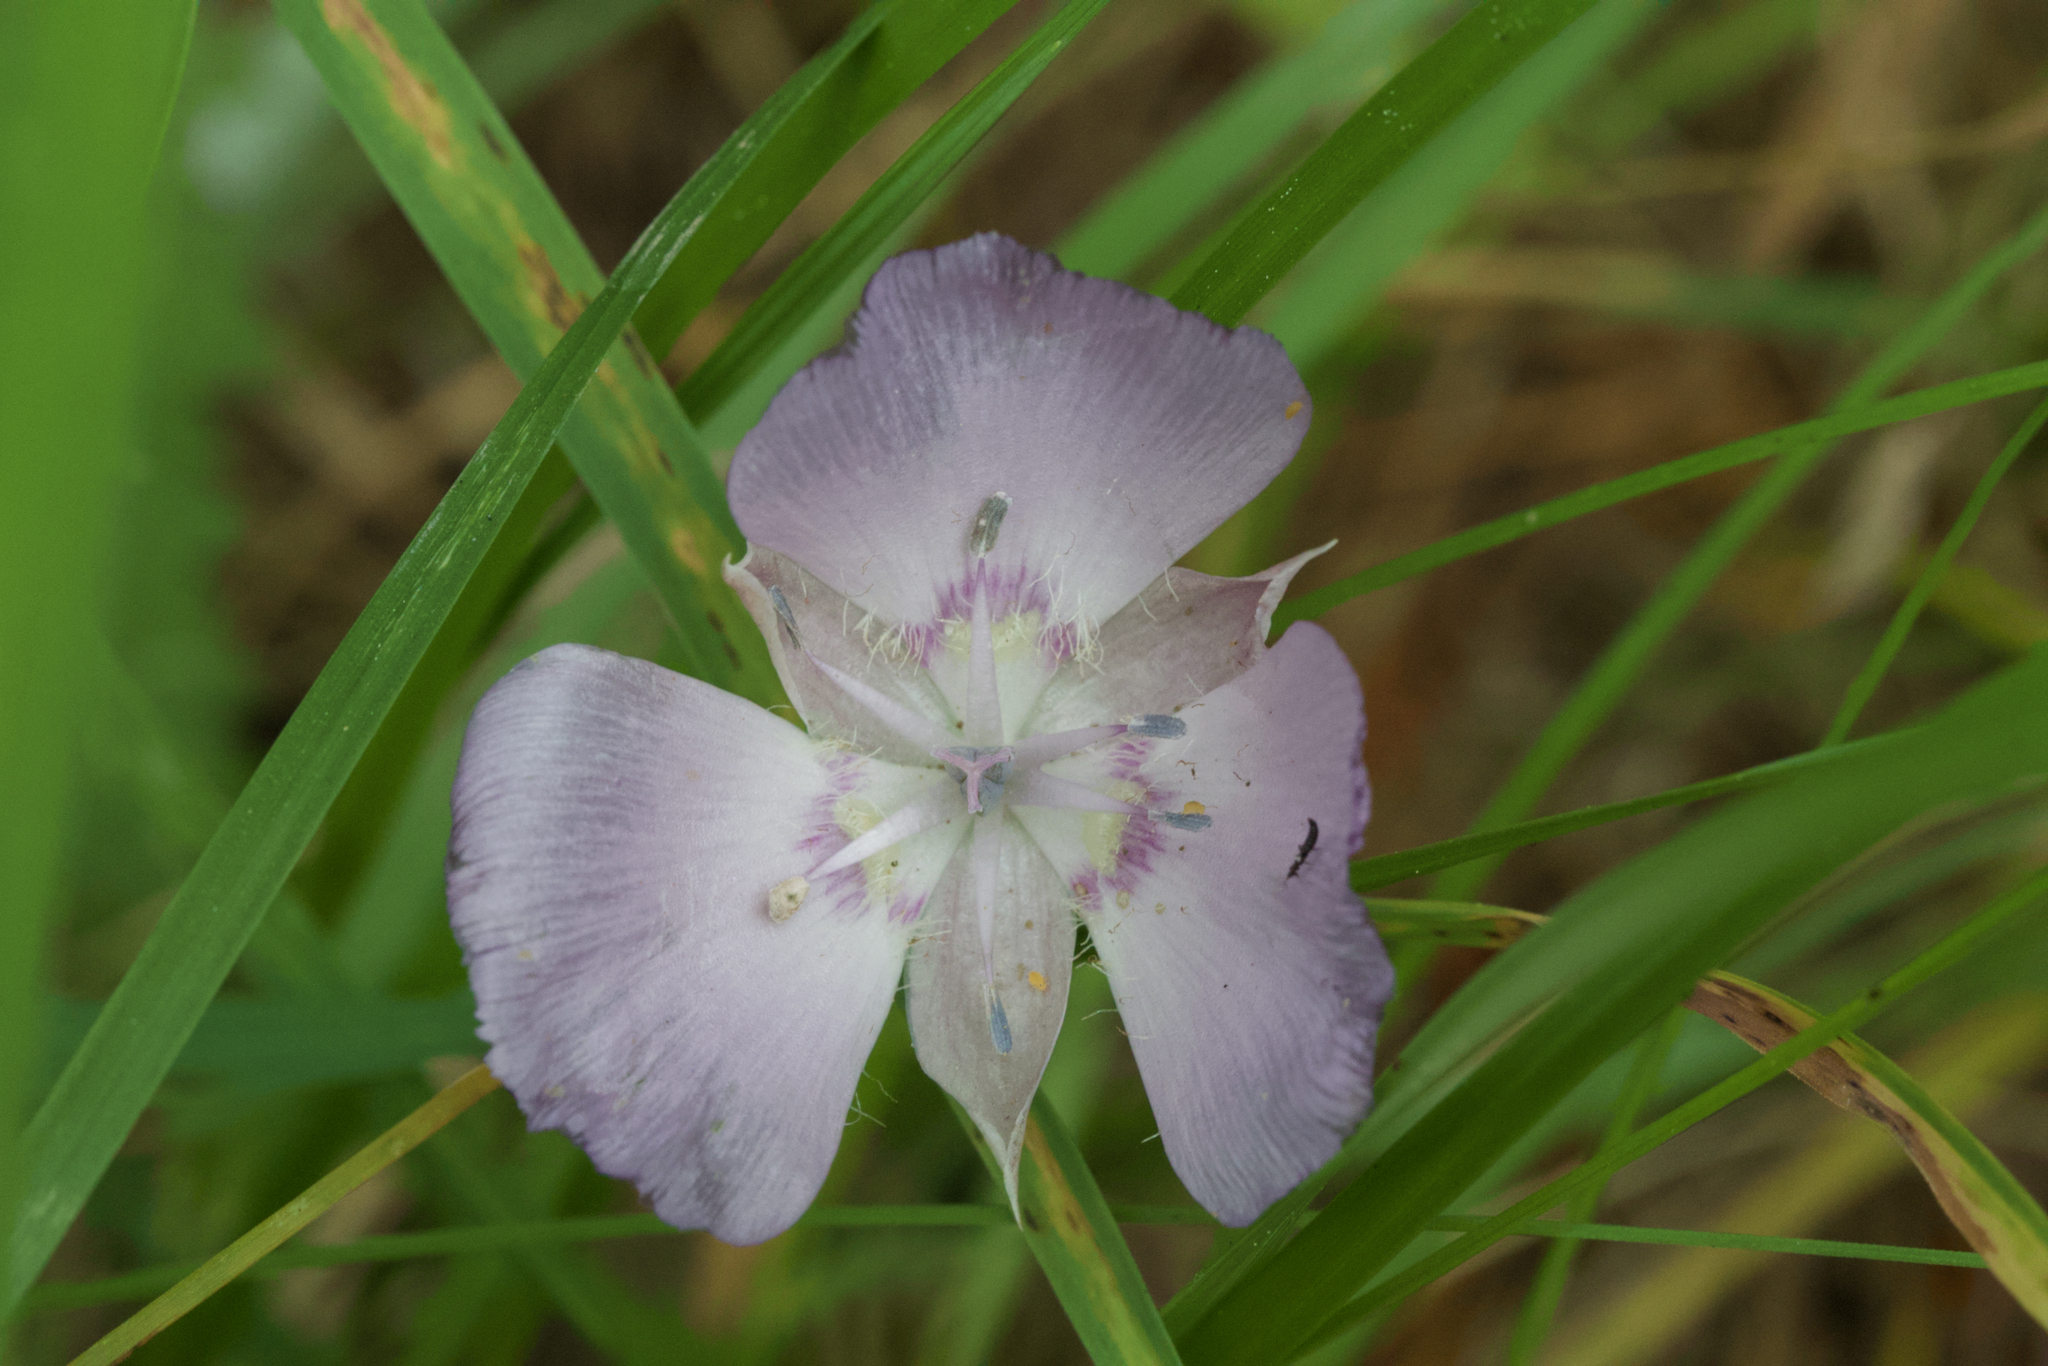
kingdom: Plantae
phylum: Tracheophyta
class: Liliopsida
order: Liliales
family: Liliaceae
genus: Calochortus
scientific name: Calochortus uniflorus
